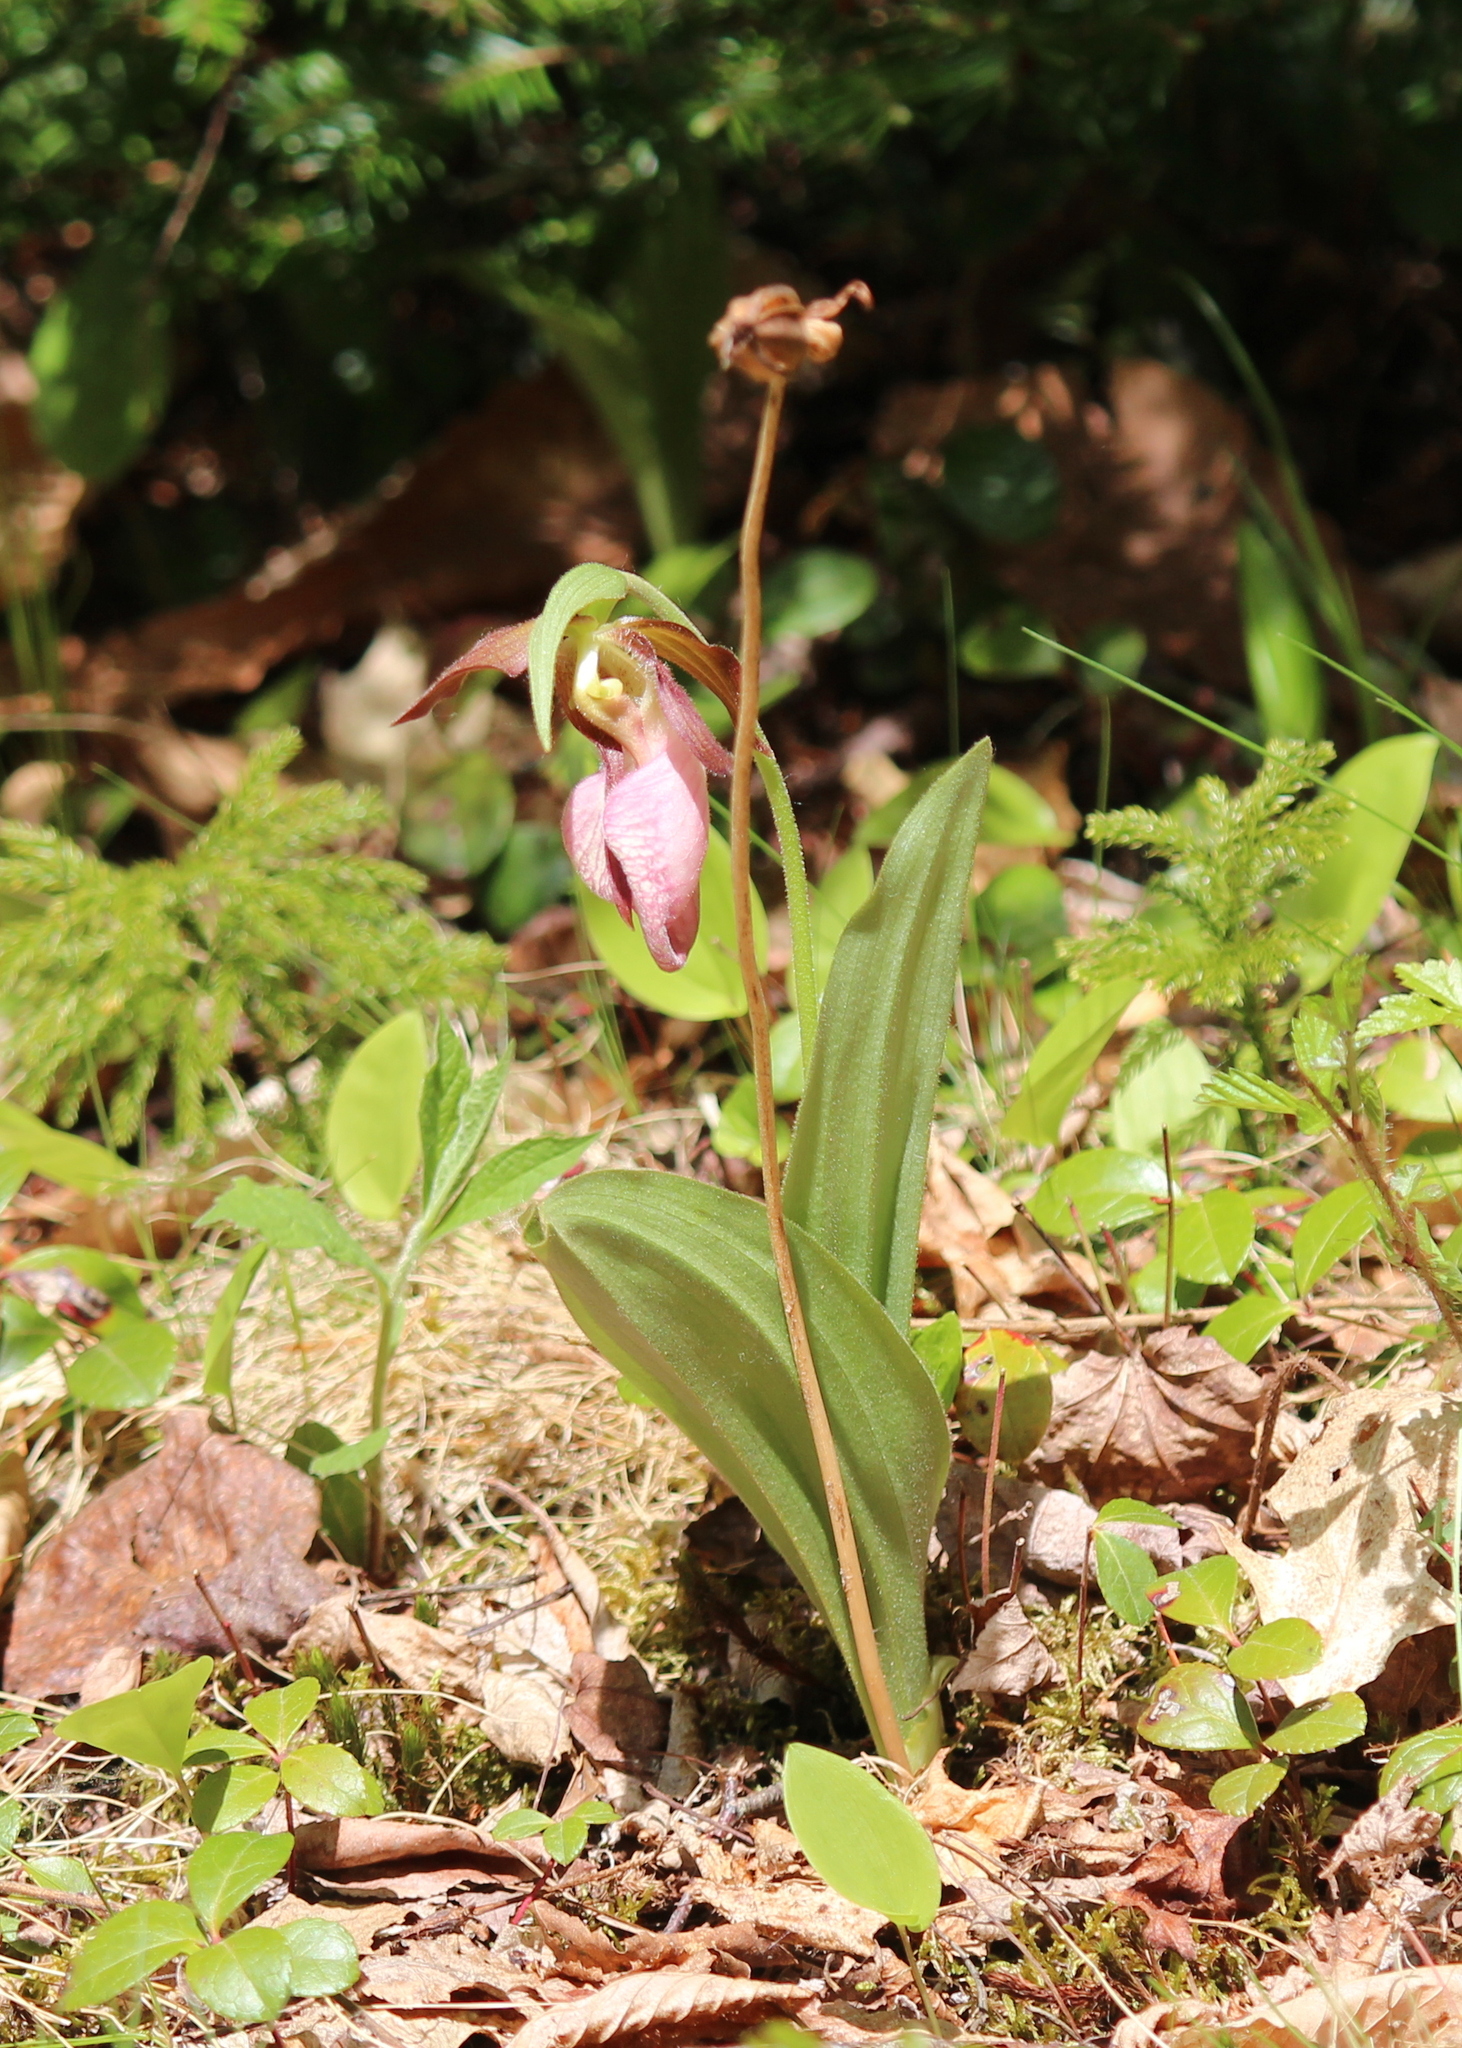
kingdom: Plantae
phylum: Tracheophyta
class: Liliopsida
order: Asparagales
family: Orchidaceae
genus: Cypripedium
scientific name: Cypripedium acaule
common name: Pink lady's-slipper
